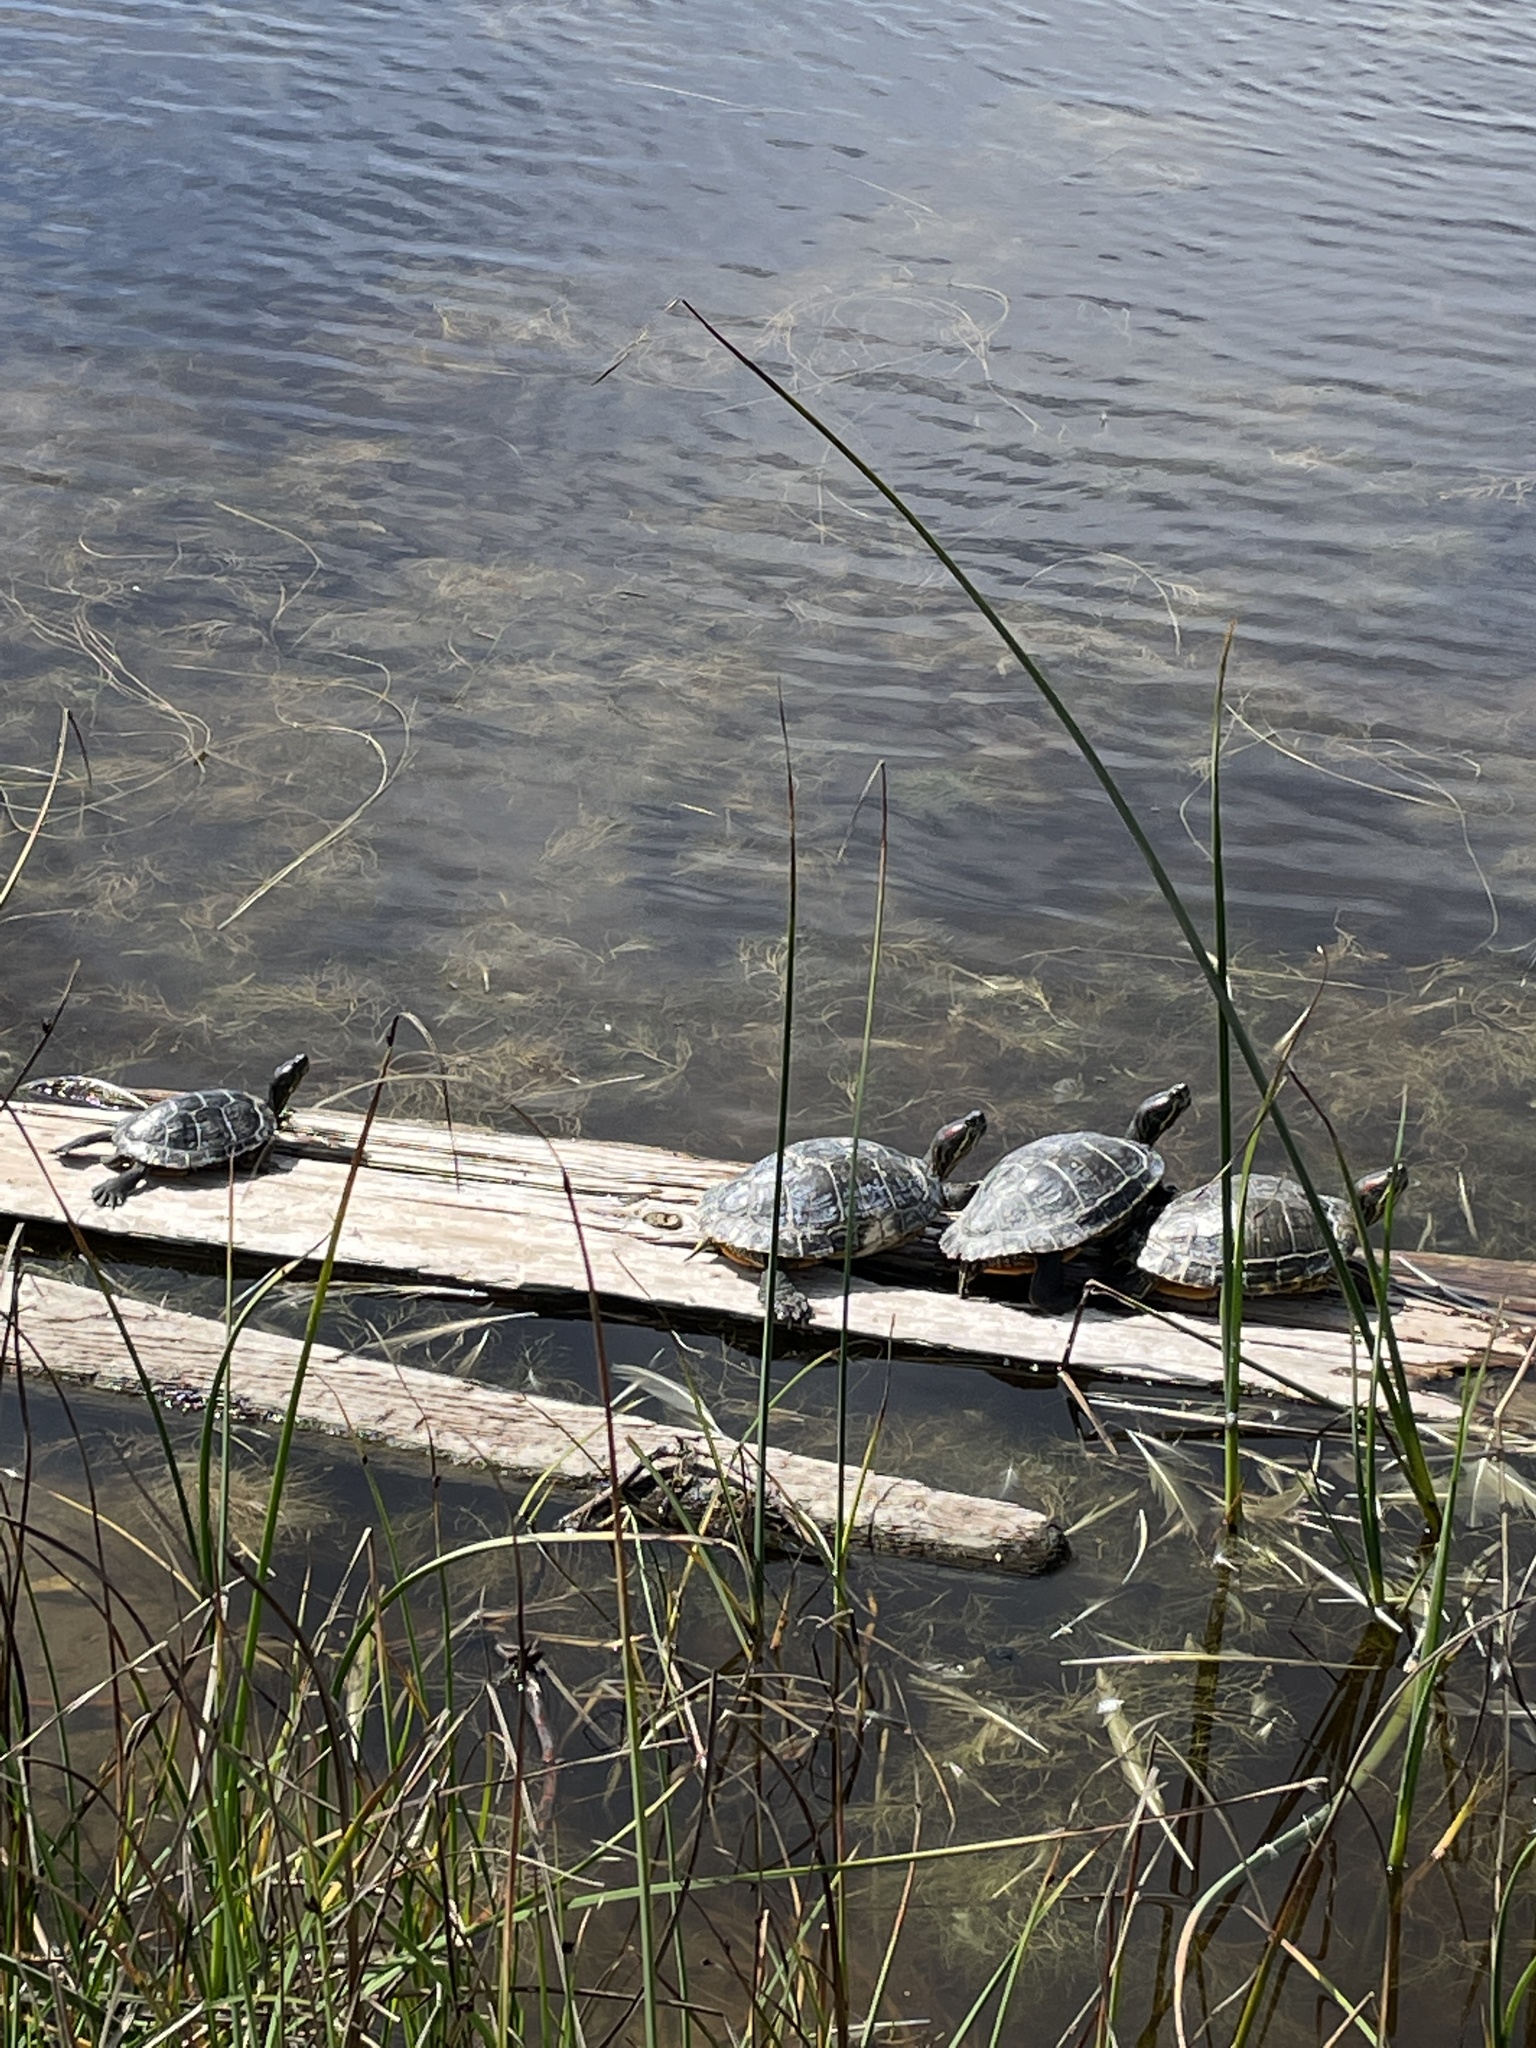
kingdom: Animalia
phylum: Chordata
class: Testudines
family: Emydidae
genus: Trachemys
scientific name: Trachemys scripta
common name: Slider
